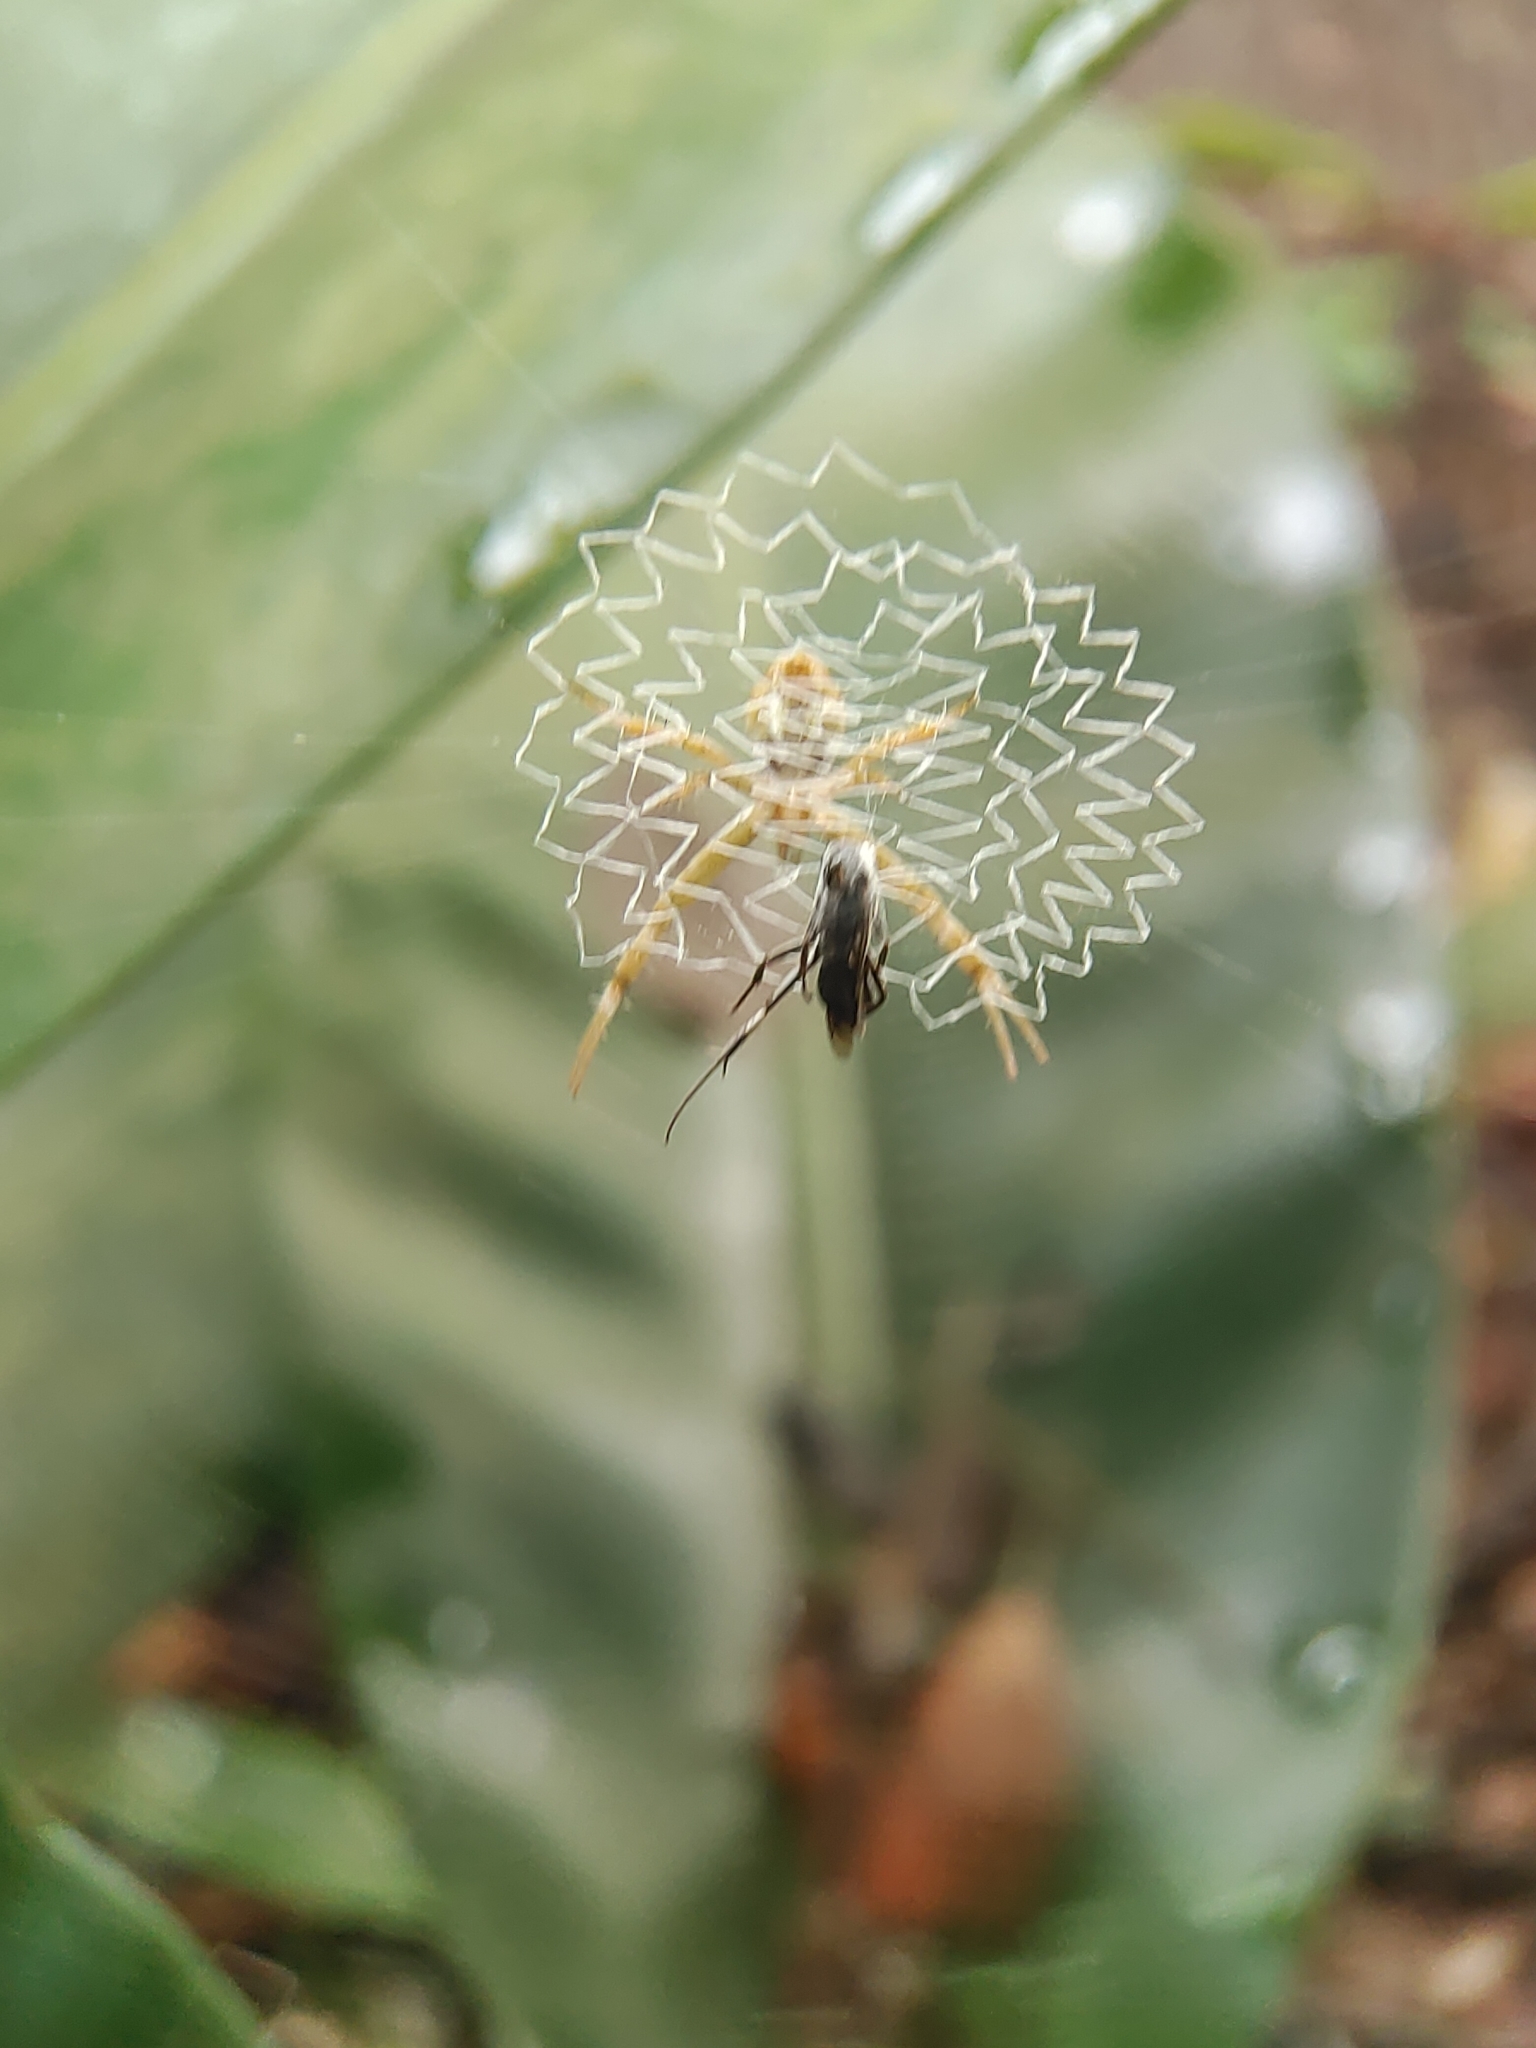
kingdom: Animalia
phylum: Arthropoda
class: Arachnida
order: Araneae
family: Araneidae
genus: Argiope
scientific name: Argiope
